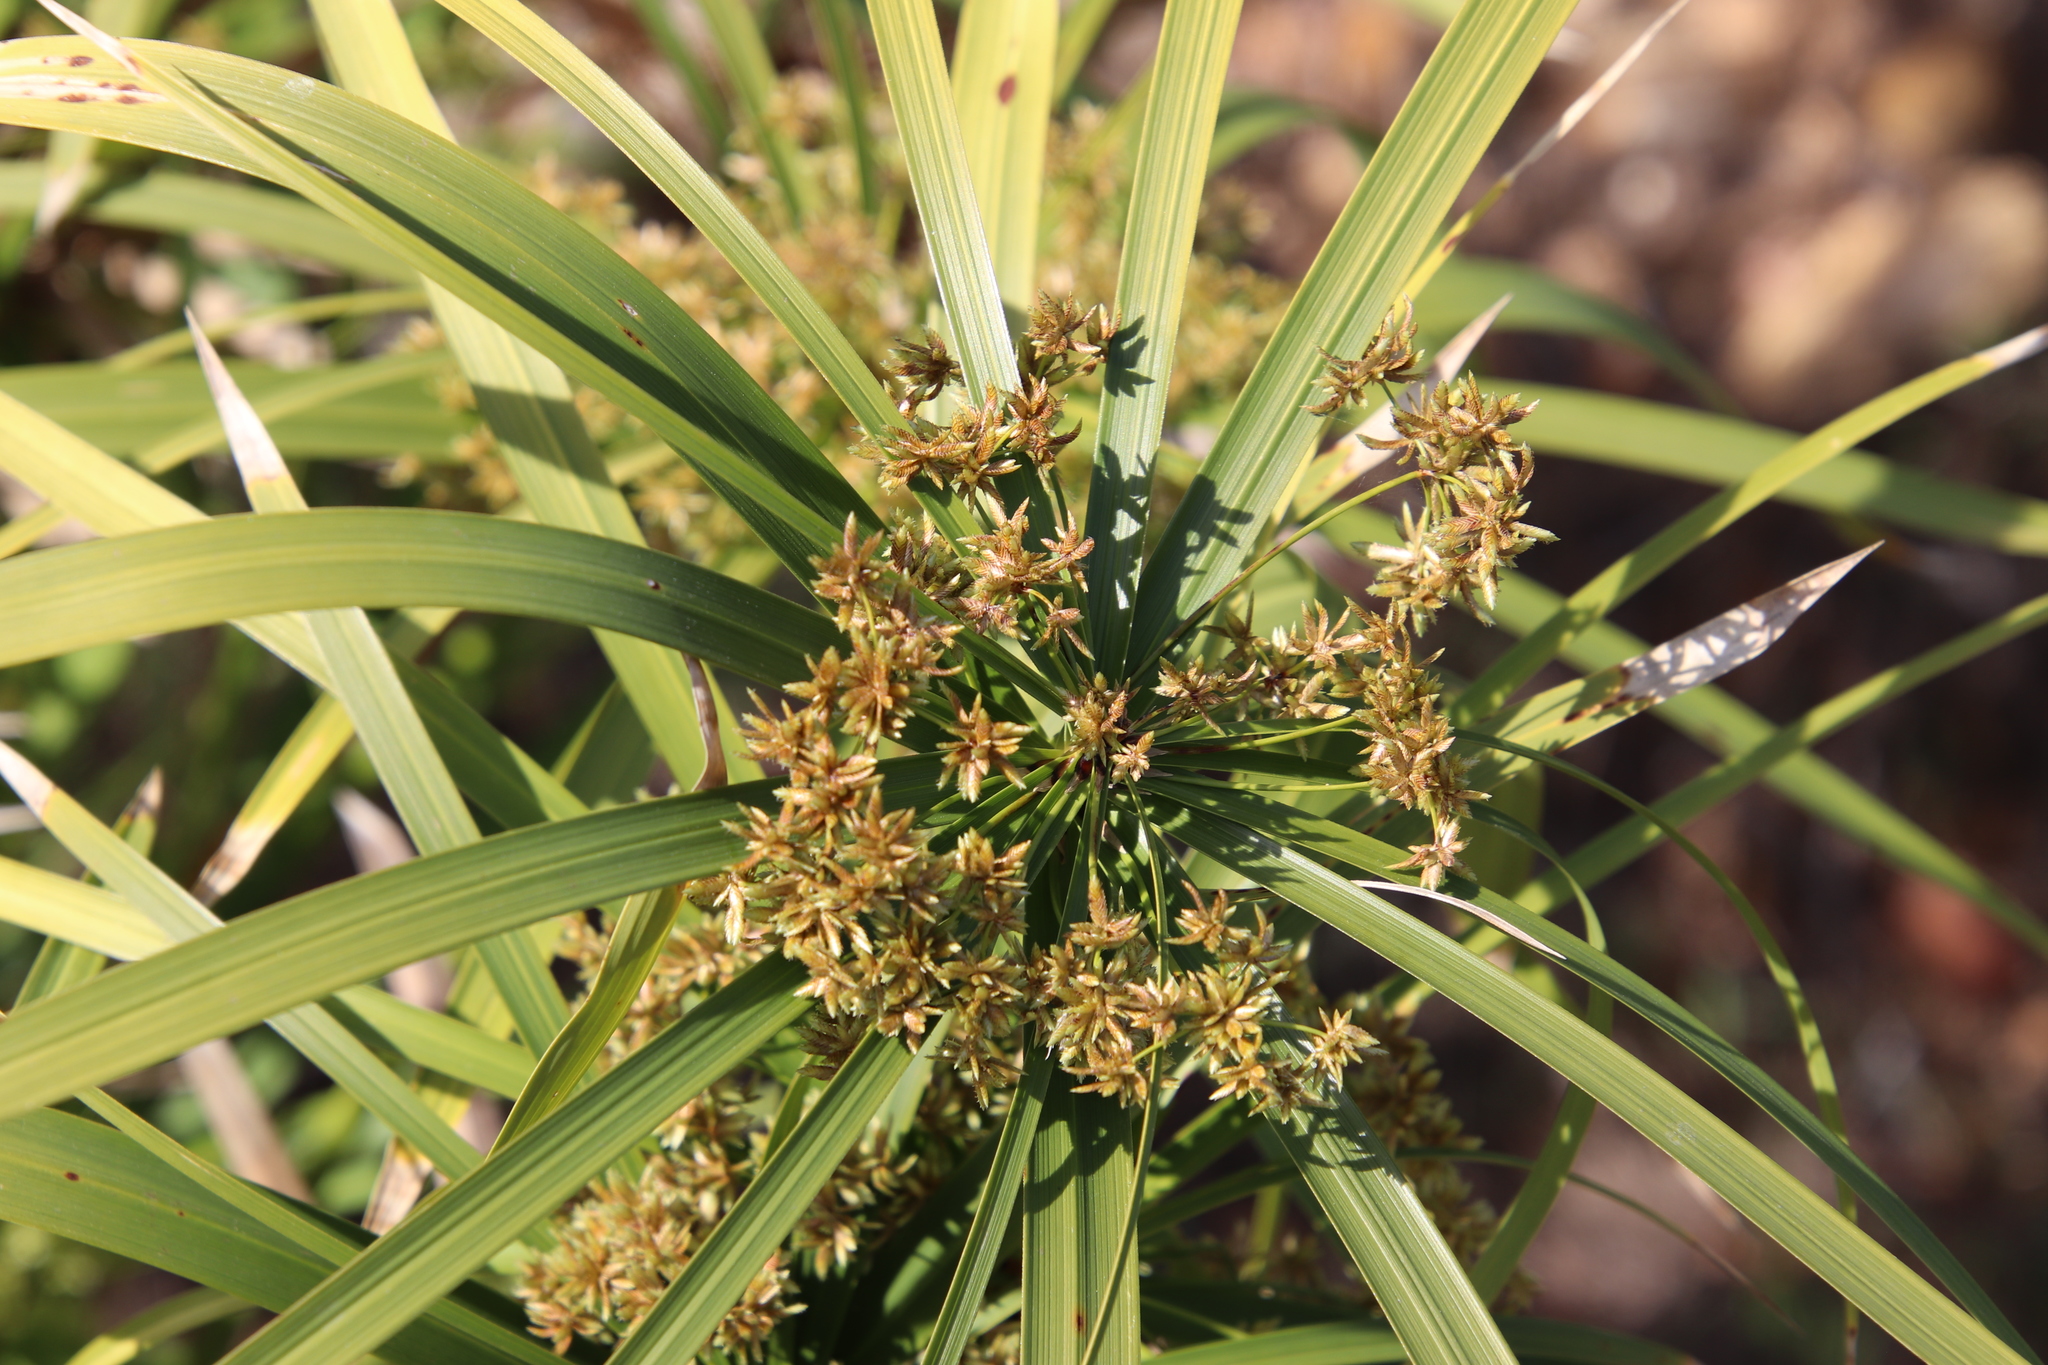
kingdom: Plantae
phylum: Tracheophyta
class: Liliopsida
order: Poales
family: Cyperaceae
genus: Cyperus
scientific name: Cyperus alternifolius
